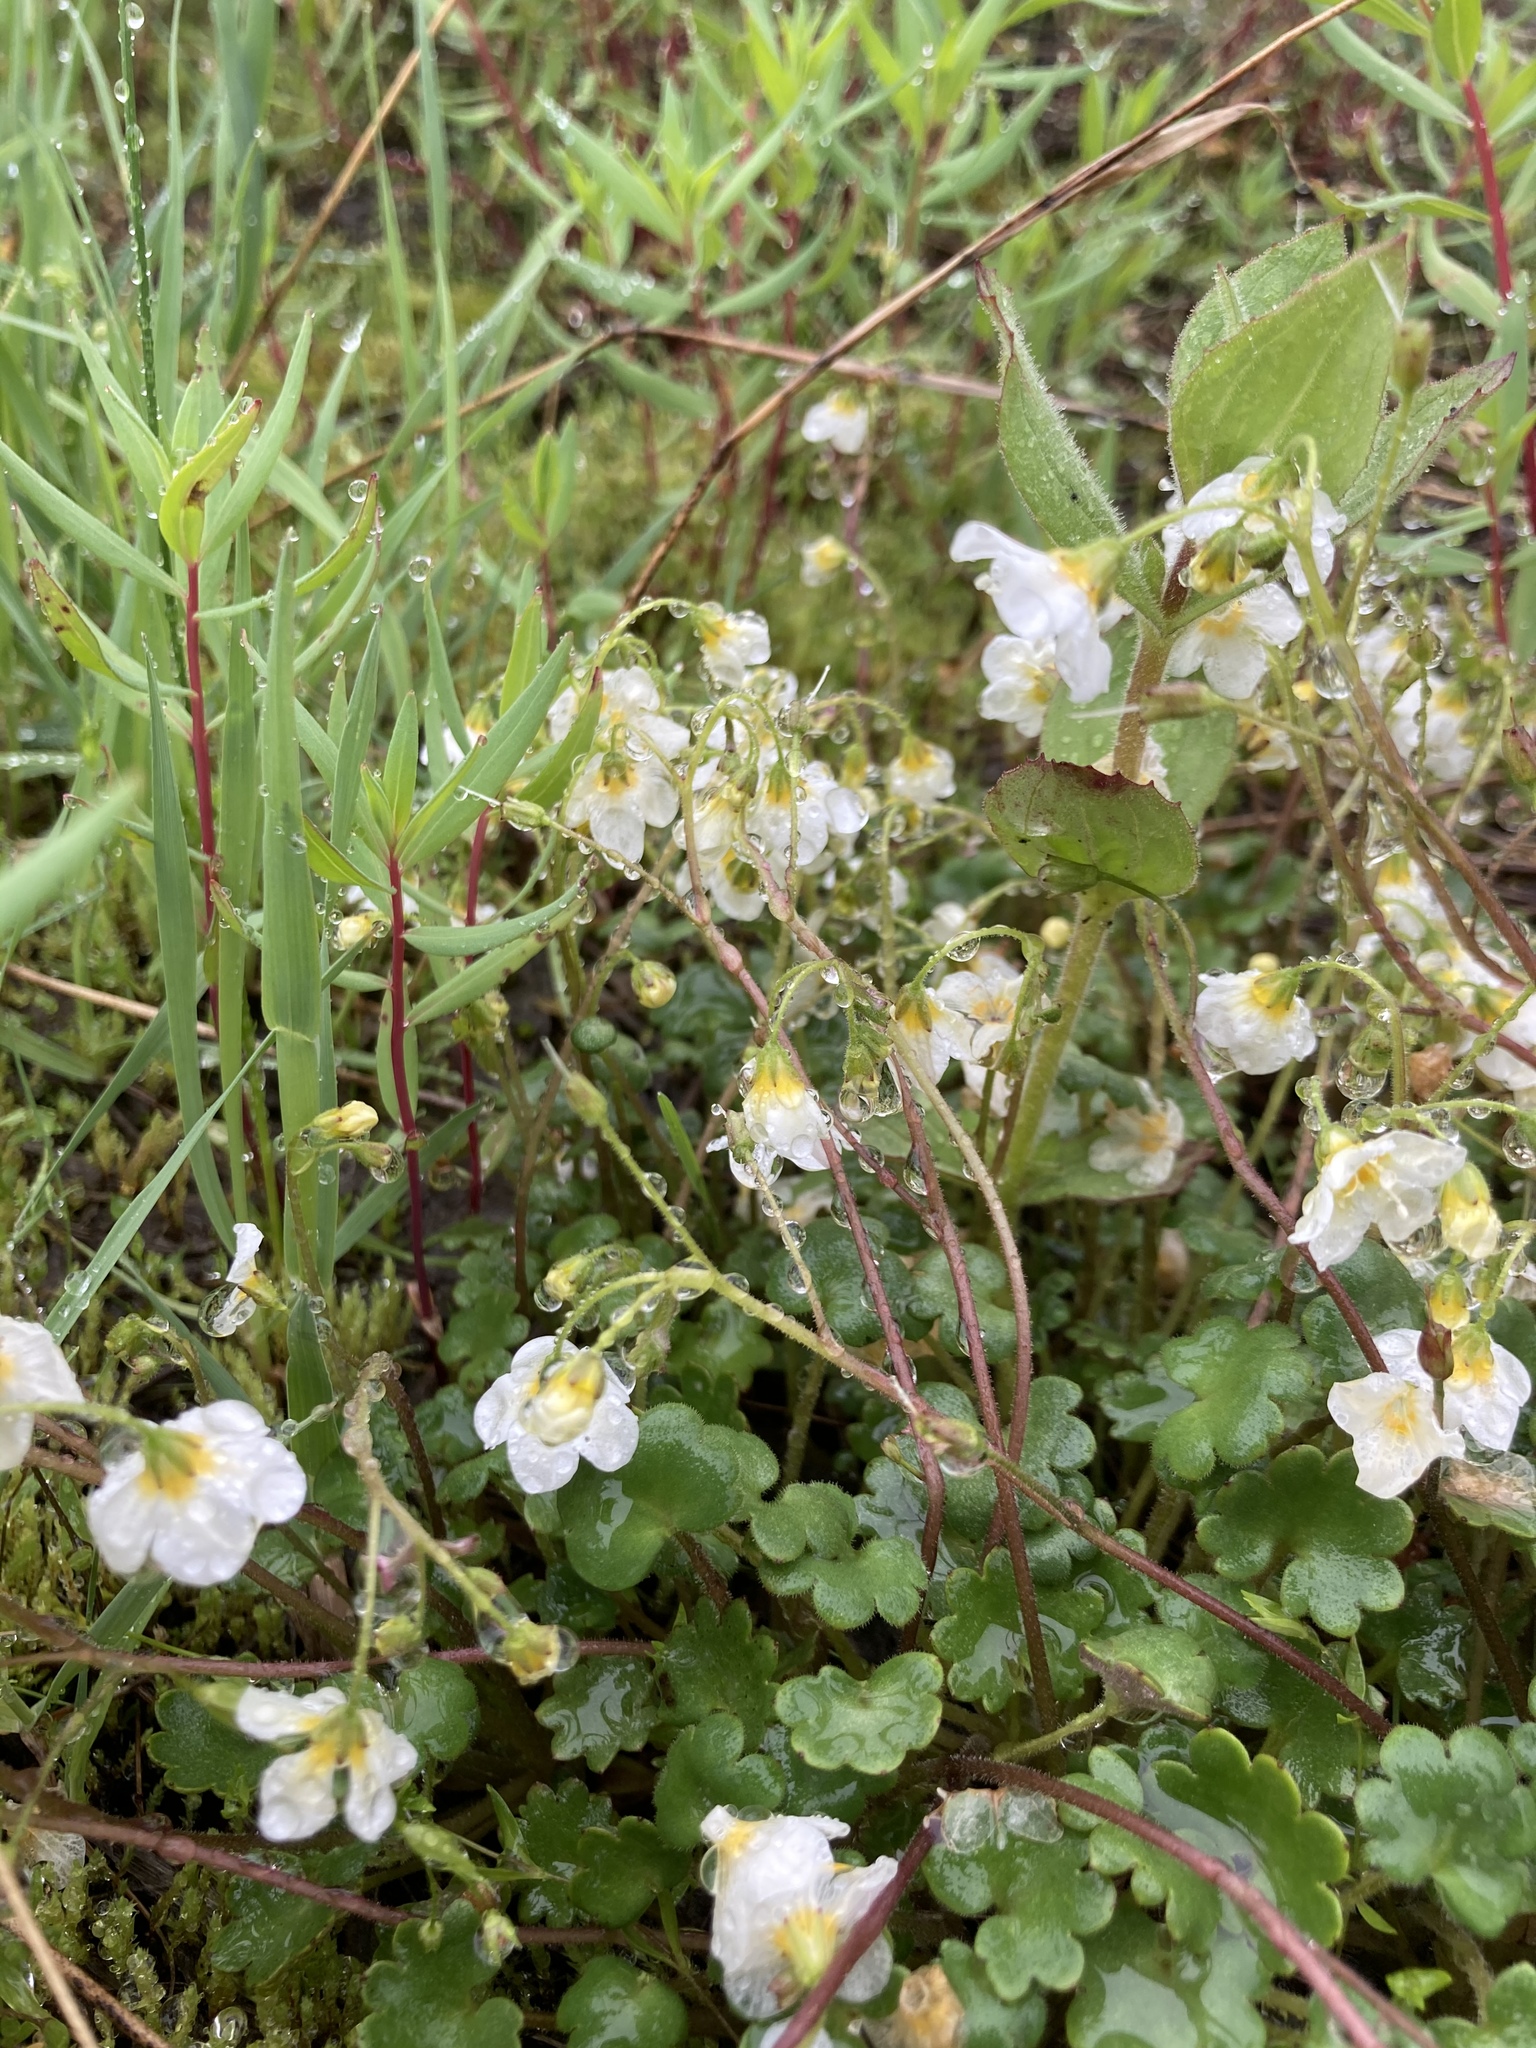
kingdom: Plantae
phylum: Tracheophyta
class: Magnoliopsida
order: Boraginales
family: Hydrophyllaceae
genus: Romanzoffia
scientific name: Romanzoffia sitchensis
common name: Sitka mistmaid
